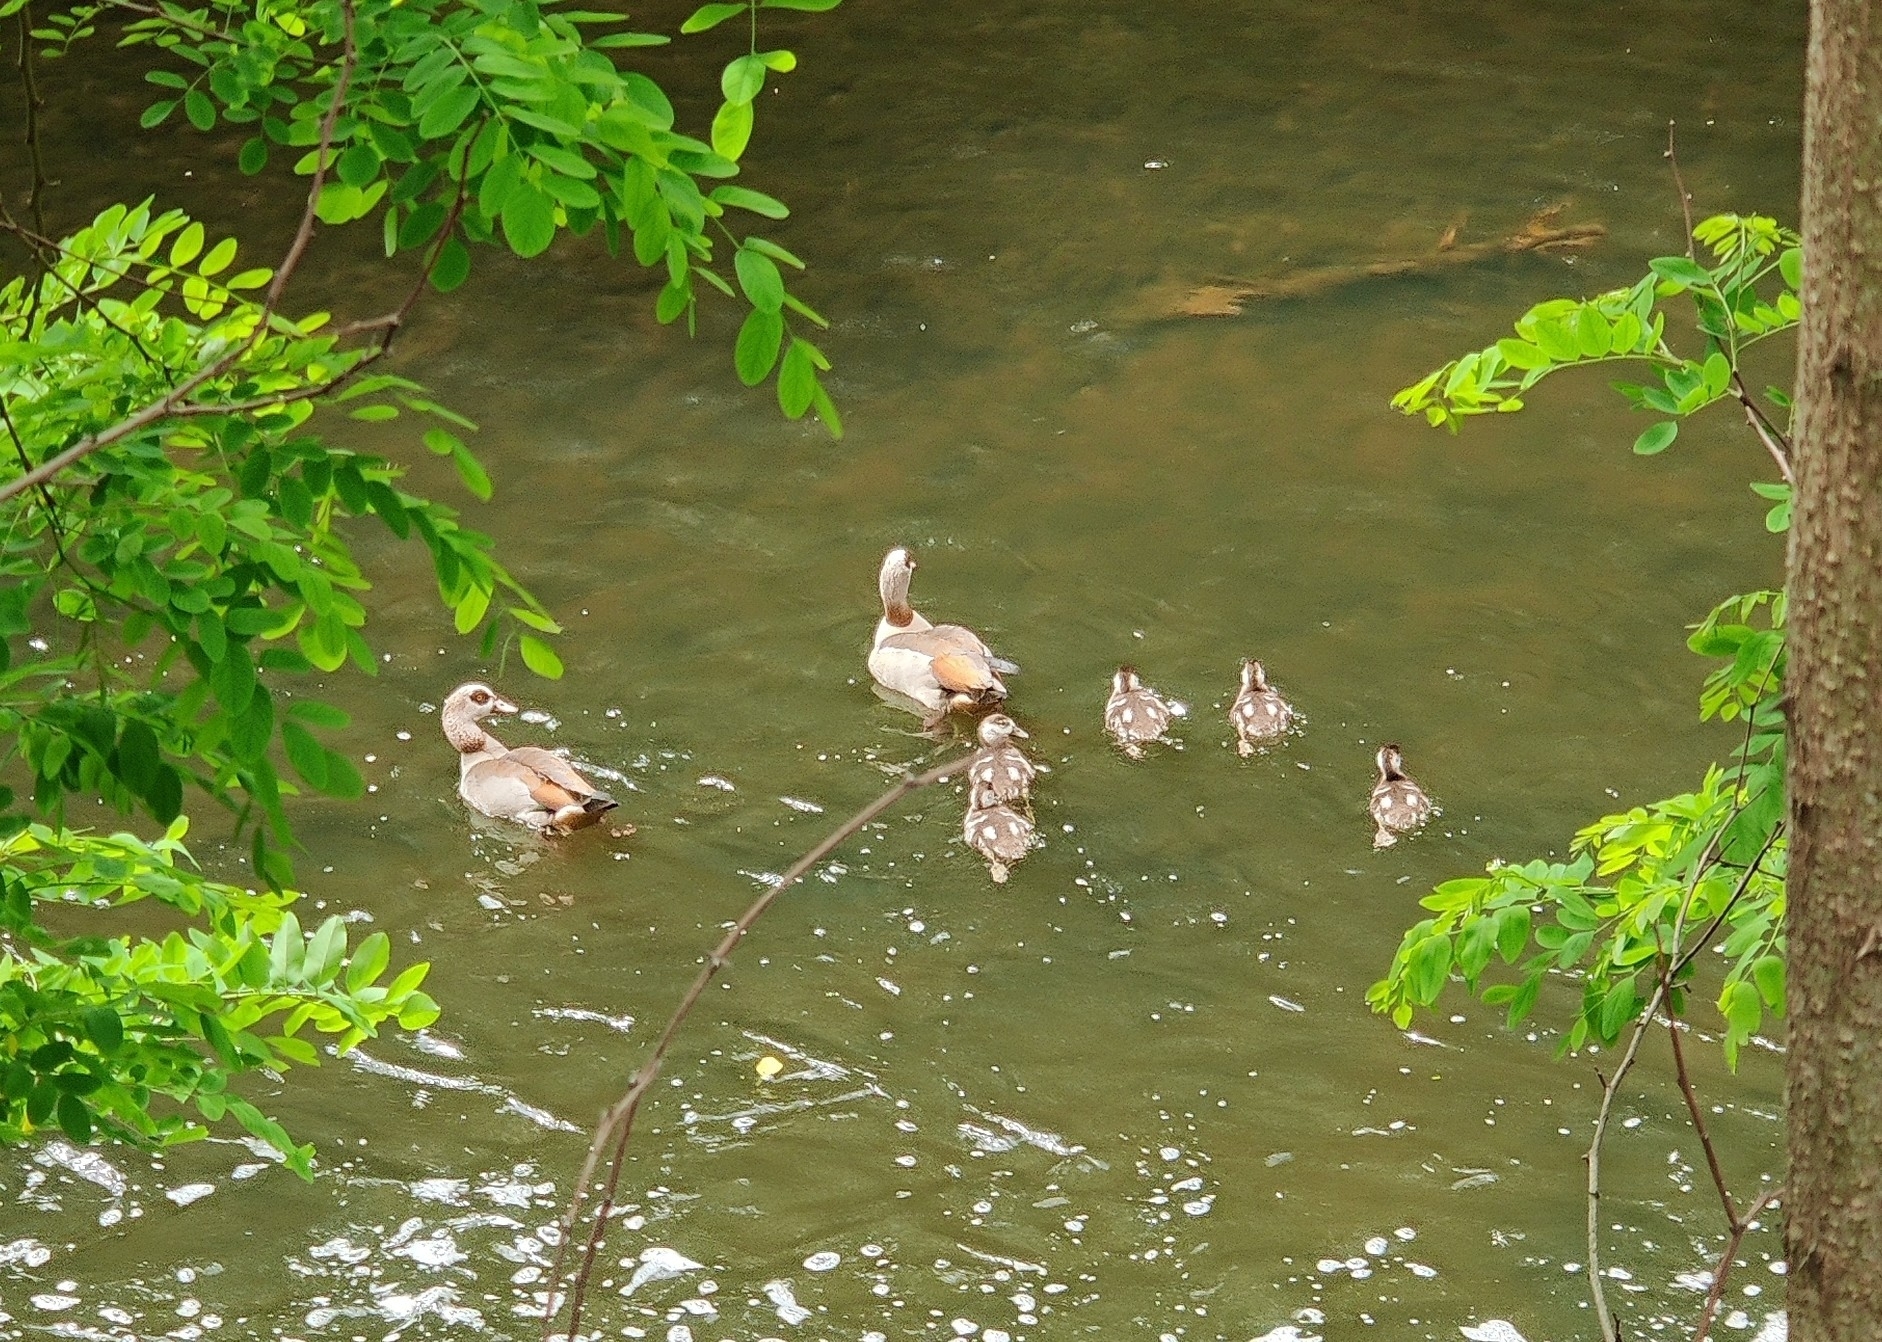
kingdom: Animalia
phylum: Chordata
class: Aves
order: Anseriformes
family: Anatidae
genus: Alopochen
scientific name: Alopochen aegyptiaca
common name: Egyptian goose
